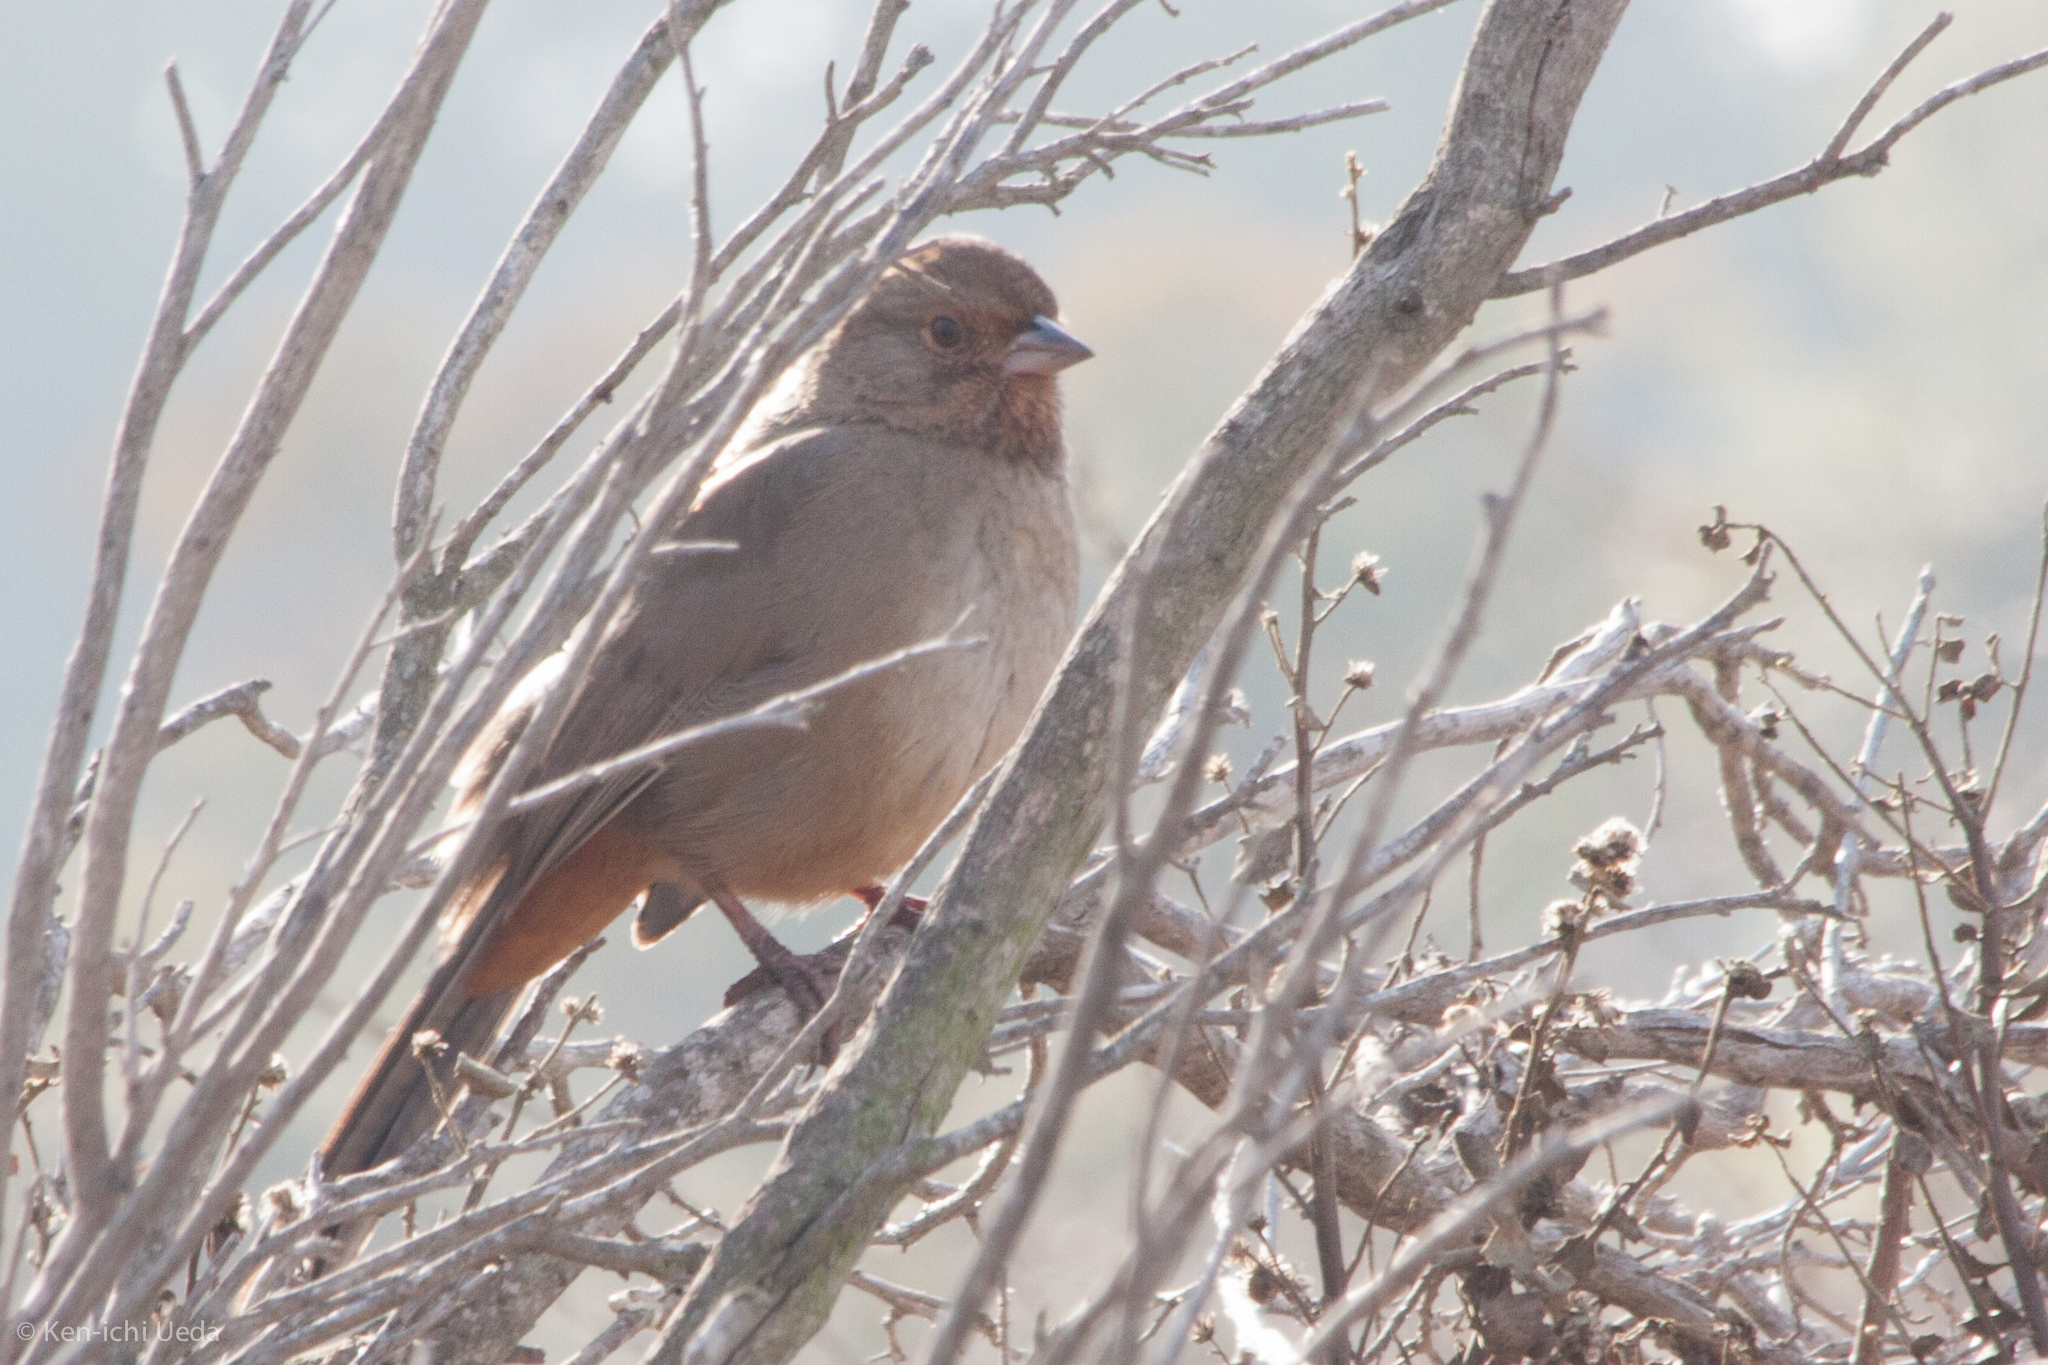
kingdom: Animalia
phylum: Chordata
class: Aves
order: Passeriformes
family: Passerellidae
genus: Melozone
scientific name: Melozone crissalis
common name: California towhee
